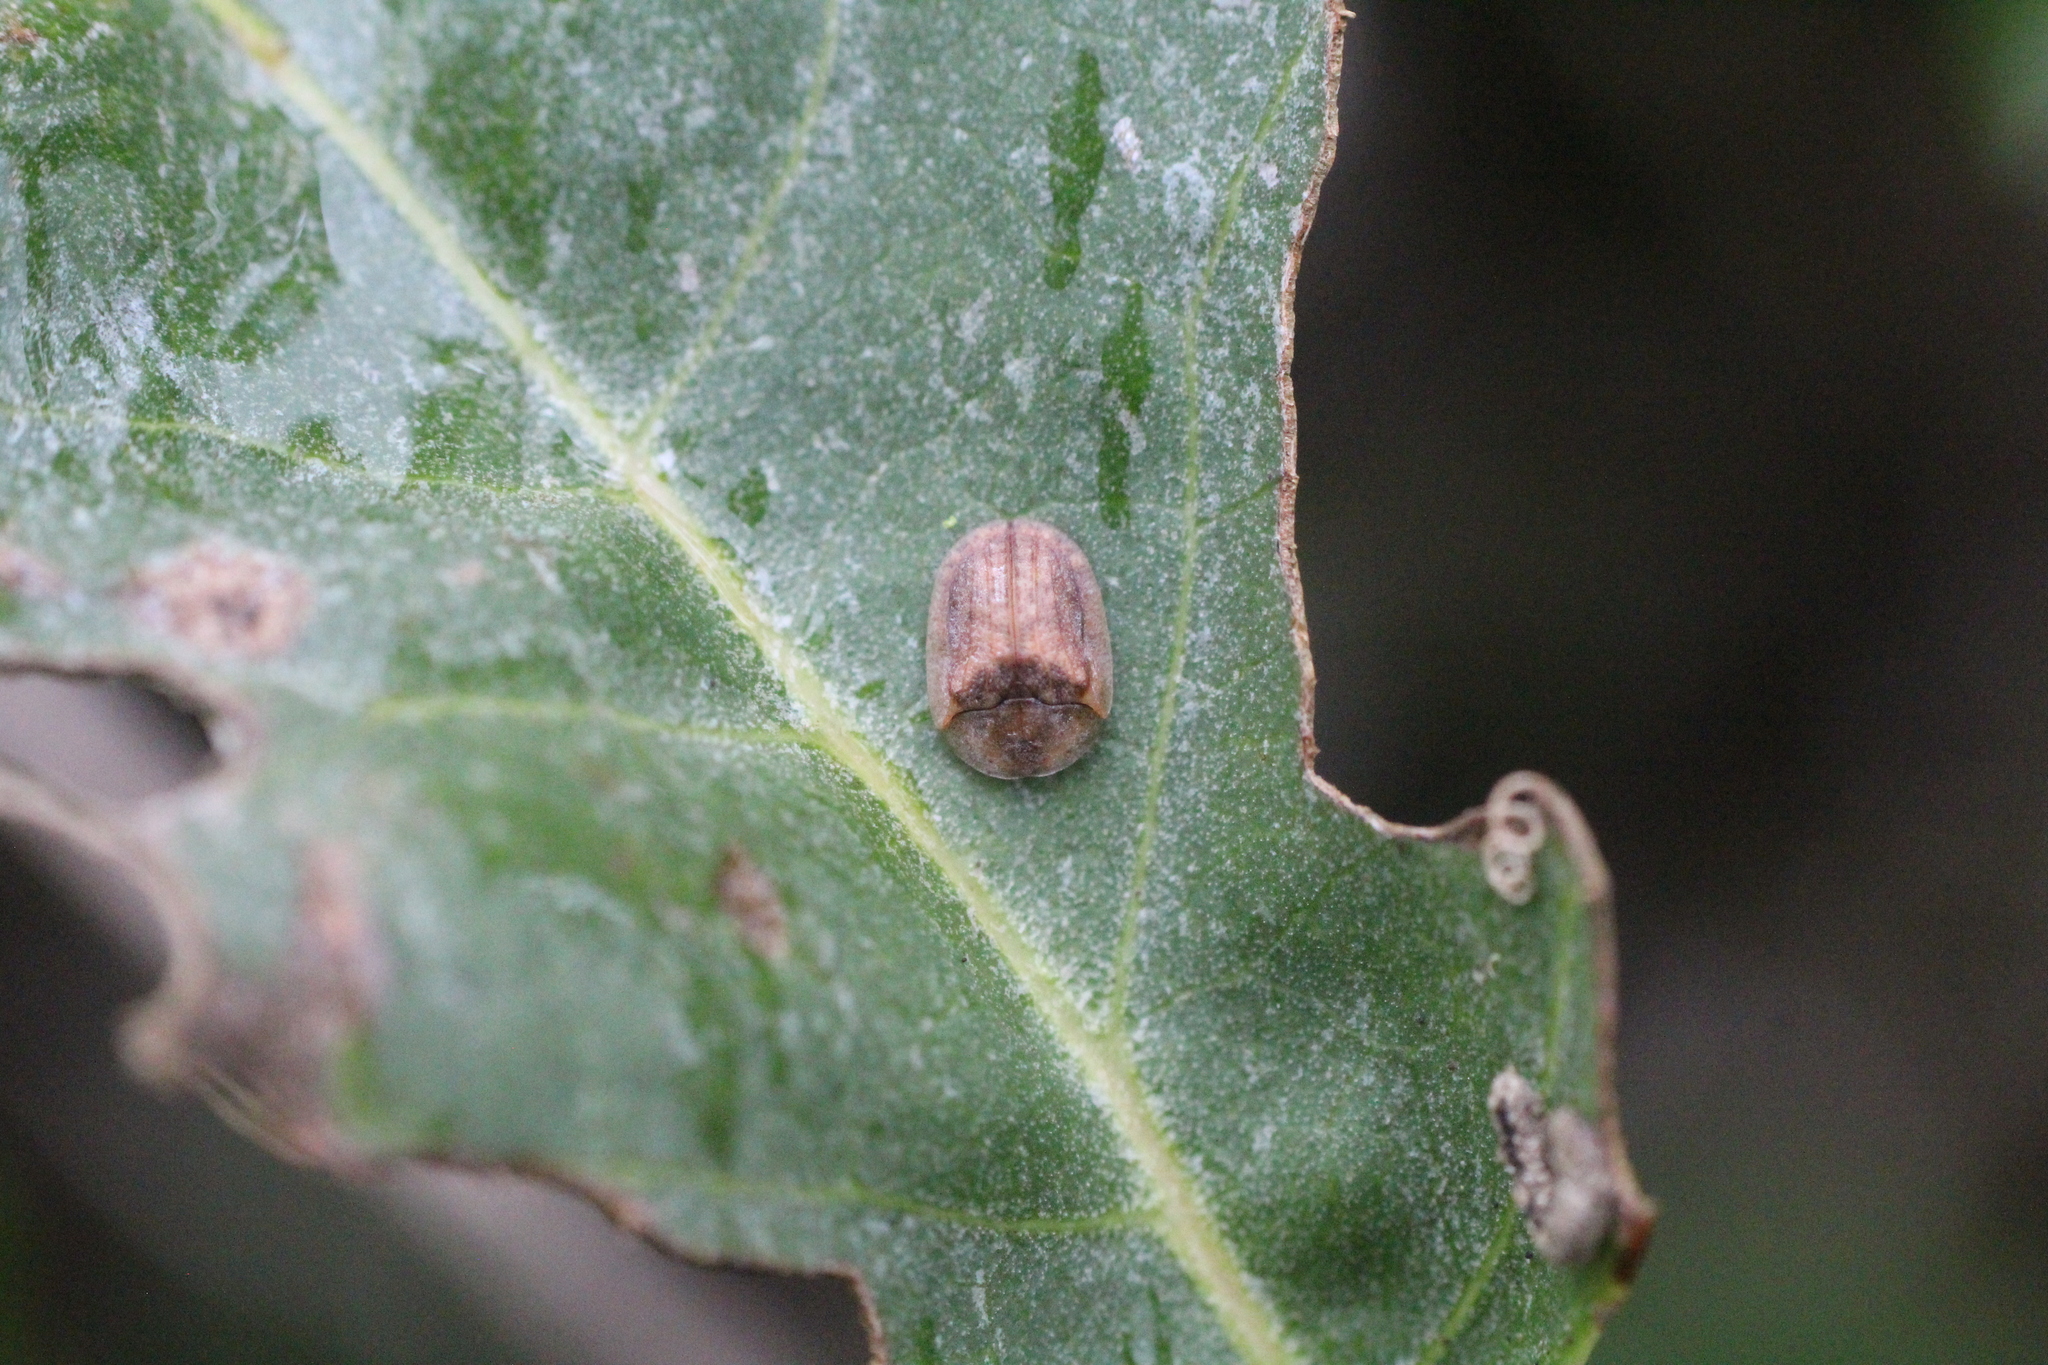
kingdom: Animalia
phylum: Arthropoda
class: Insecta
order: Coleoptera
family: Chrysomelidae
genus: Hypocassida
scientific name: Hypocassida subferruginea
